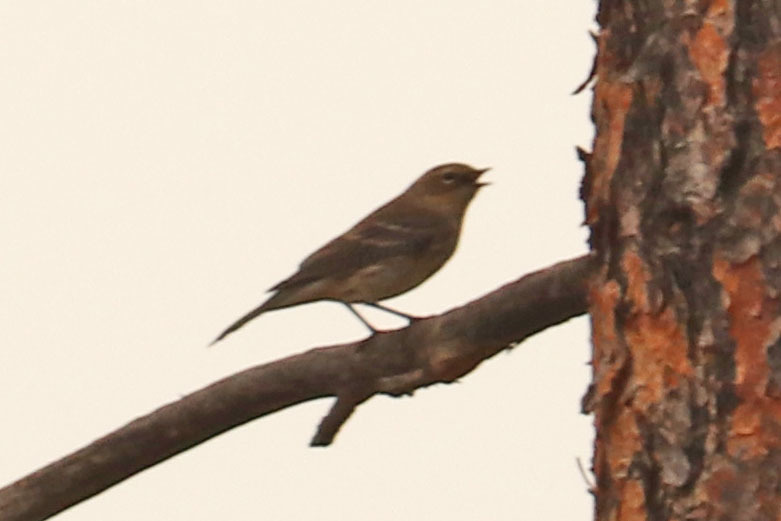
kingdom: Animalia
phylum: Chordata
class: Aves
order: Passeriformes
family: Parulidae
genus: Setophaga
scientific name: Setophaga coronata
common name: Myrtle warbler
